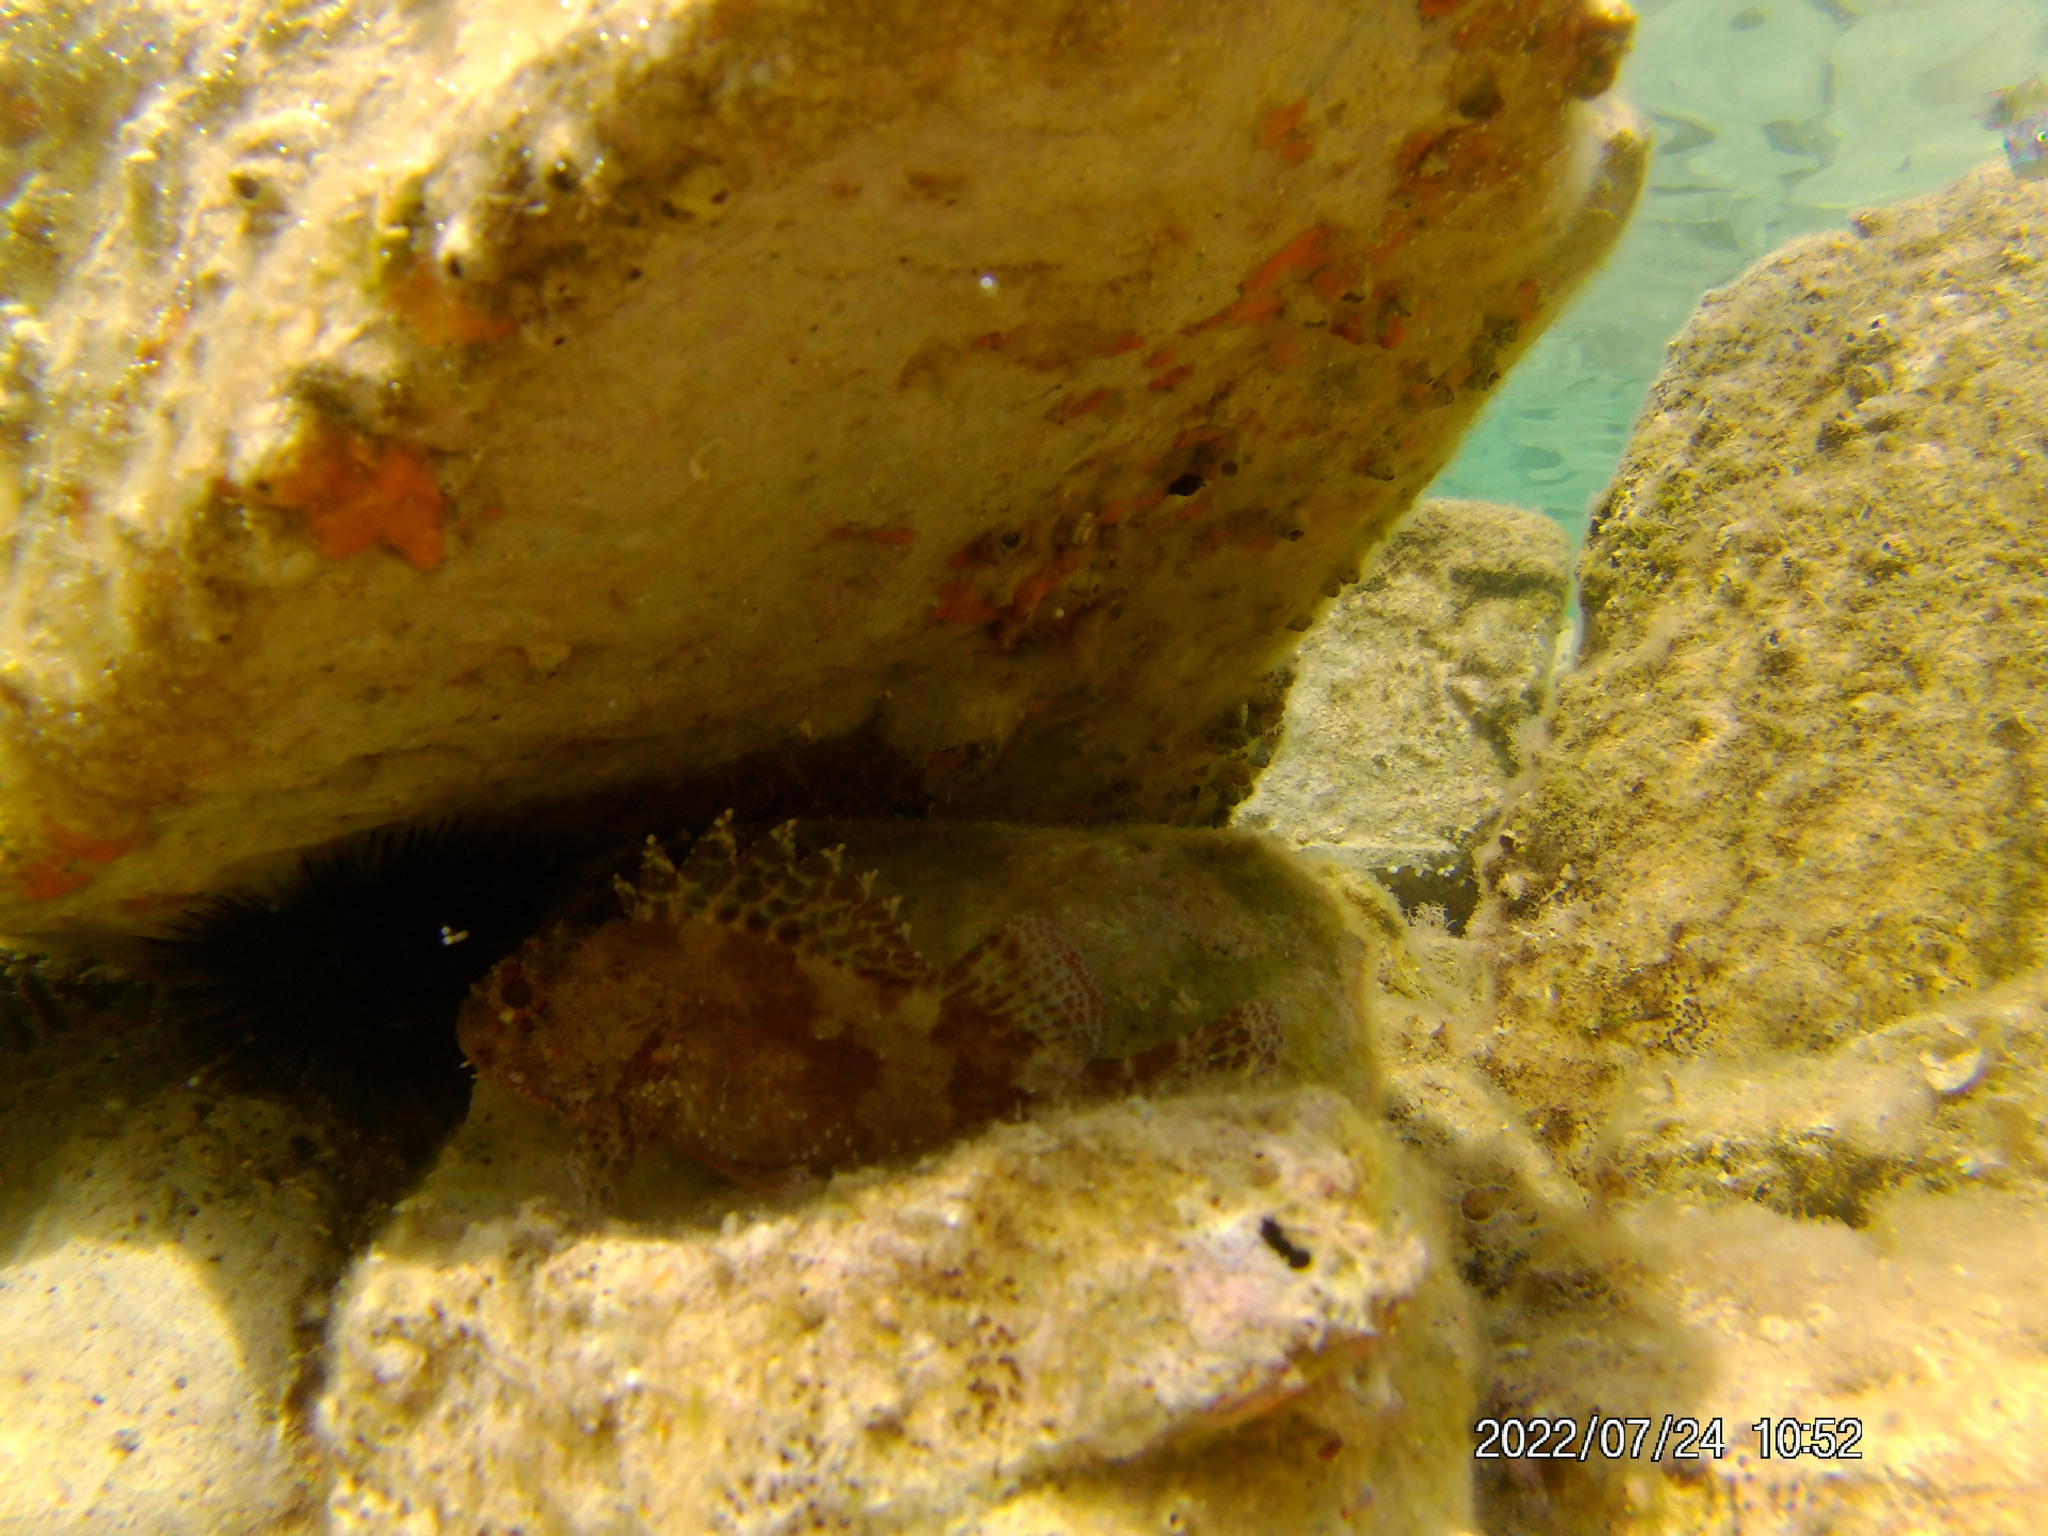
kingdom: Animalia
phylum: Chordata
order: Scorpaeniformes
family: Scorpaenidae
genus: Scorpaena
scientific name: Scorpaena maderensis
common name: Madeira rockfish
